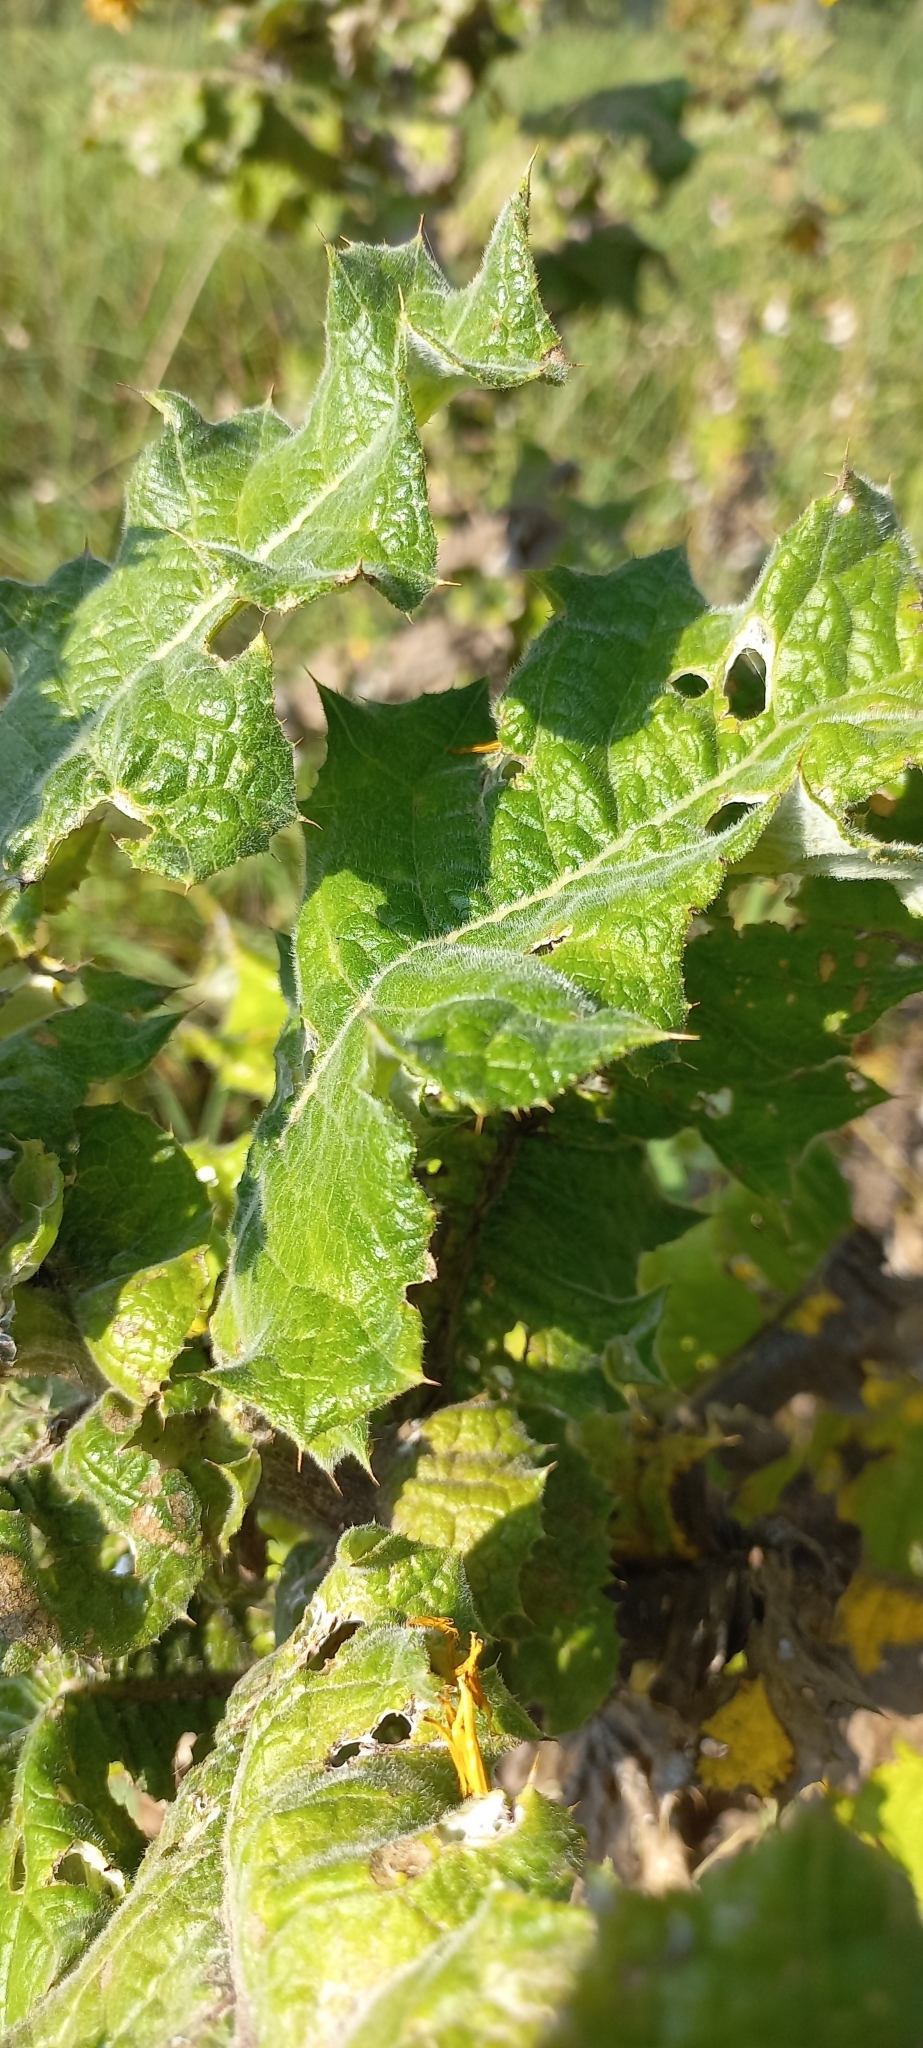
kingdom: Plantae
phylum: Tracheophyta
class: Magnoliopsida
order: Asterales
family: Asteraceae
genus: Berkheya
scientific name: Berkheya macrocephala
